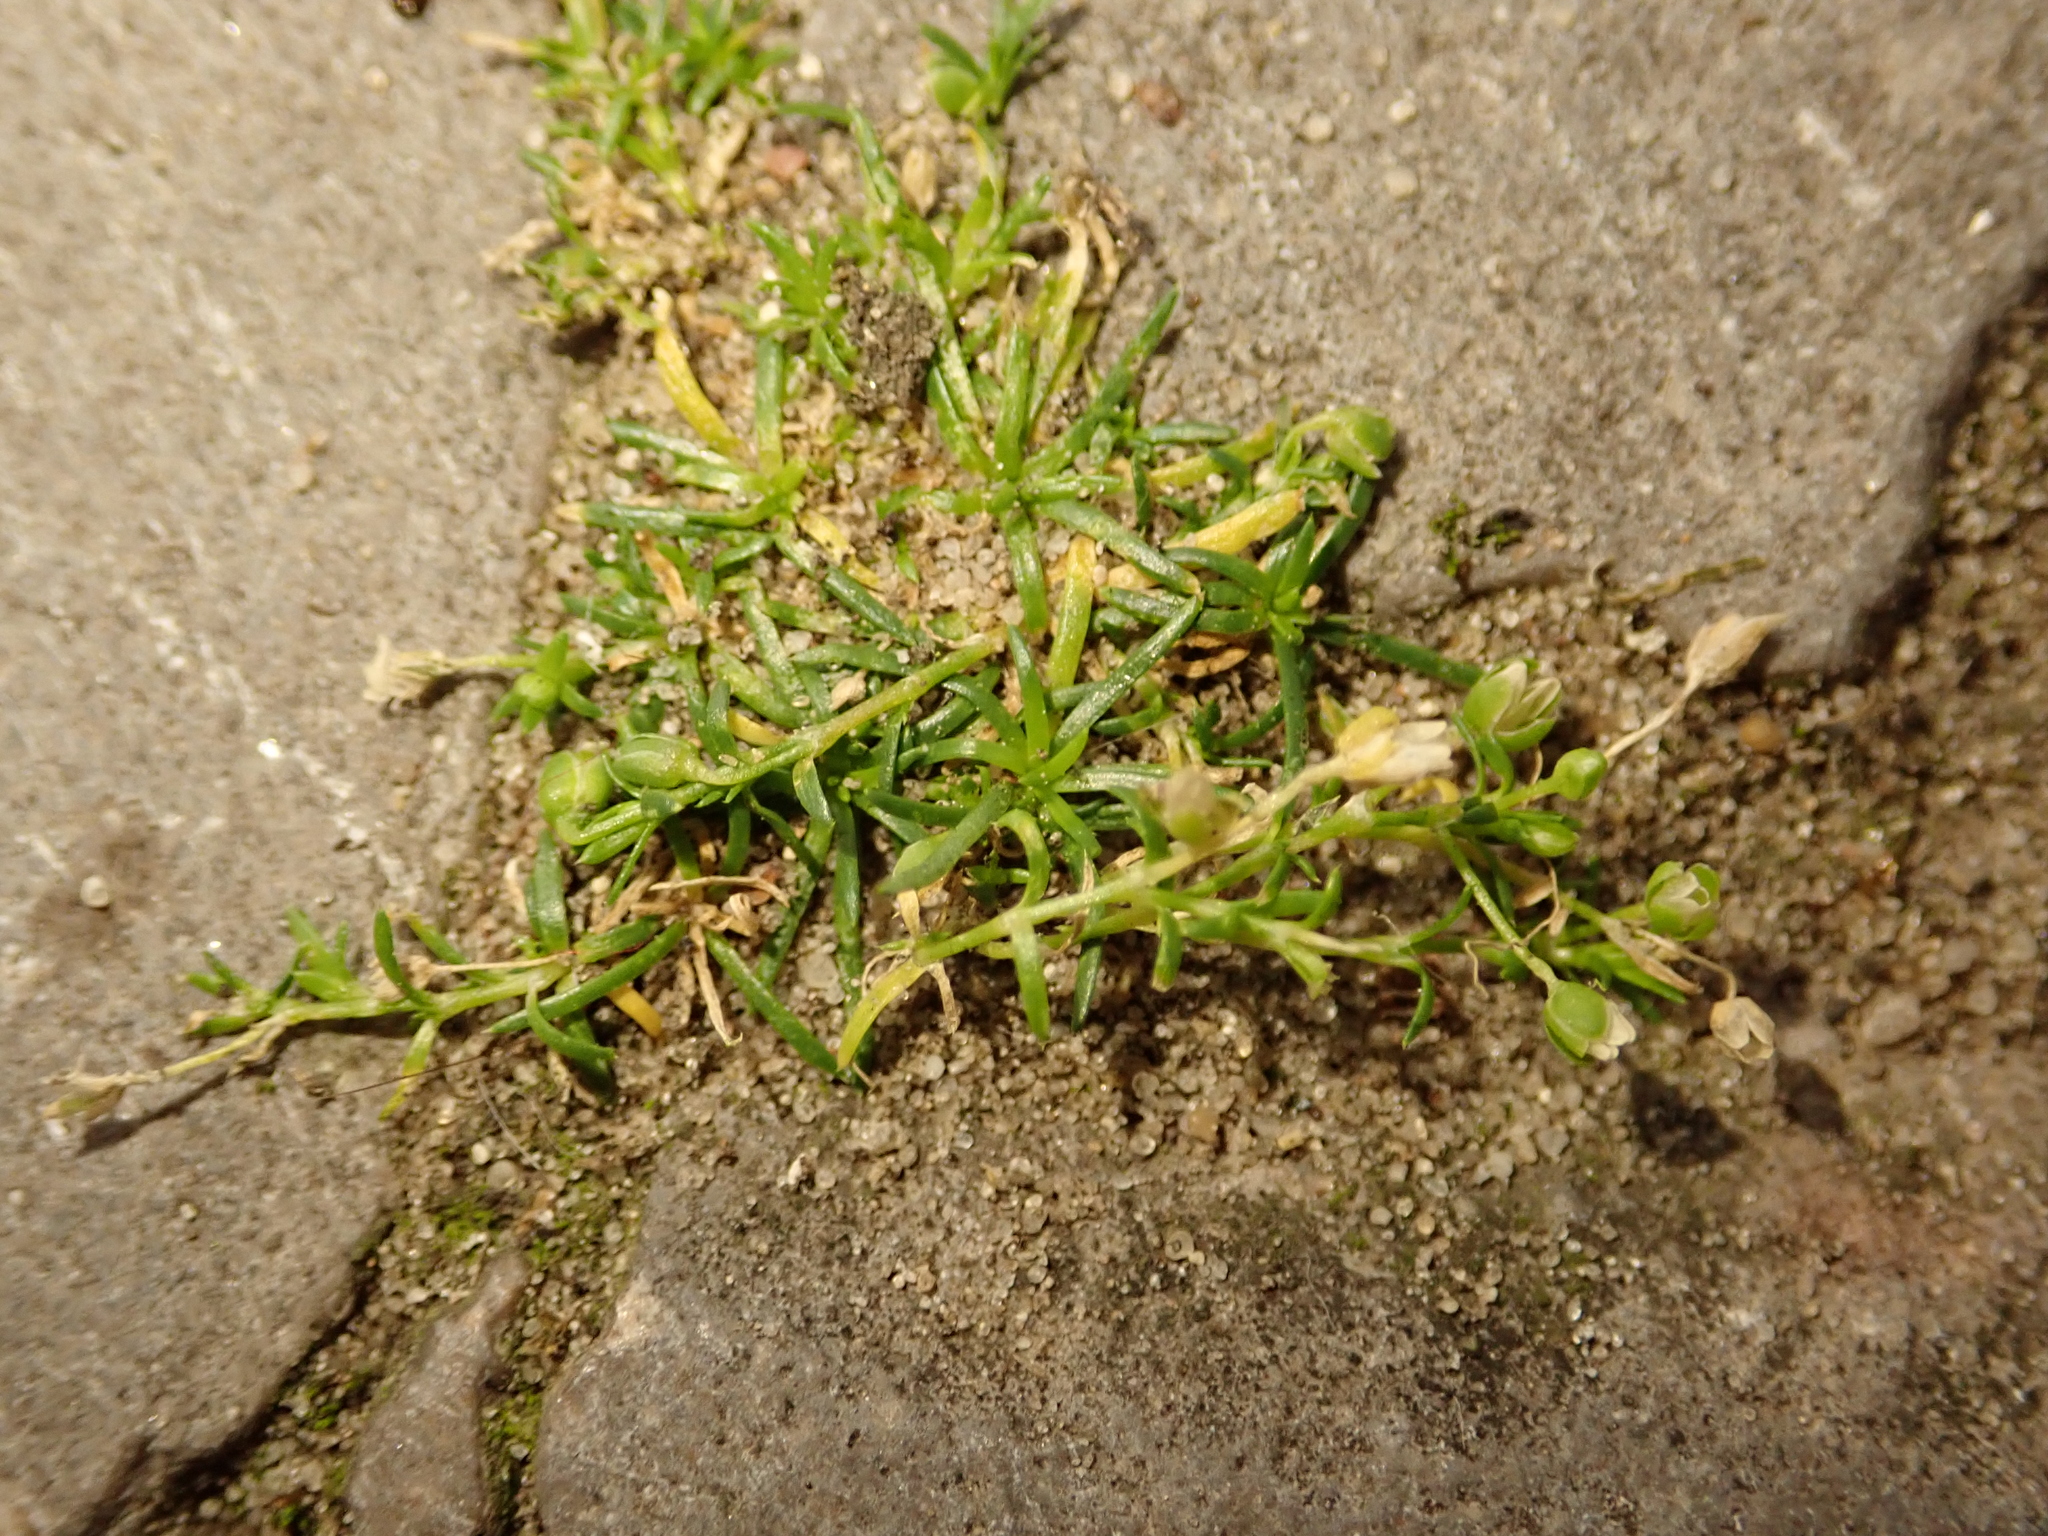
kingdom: Plantae
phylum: Tracheophyta
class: Magnoliopsida
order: Caryophyllales
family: Caryophyllaceae
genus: Sagina
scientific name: Sagina procumbens
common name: Procumbent pearlwort
